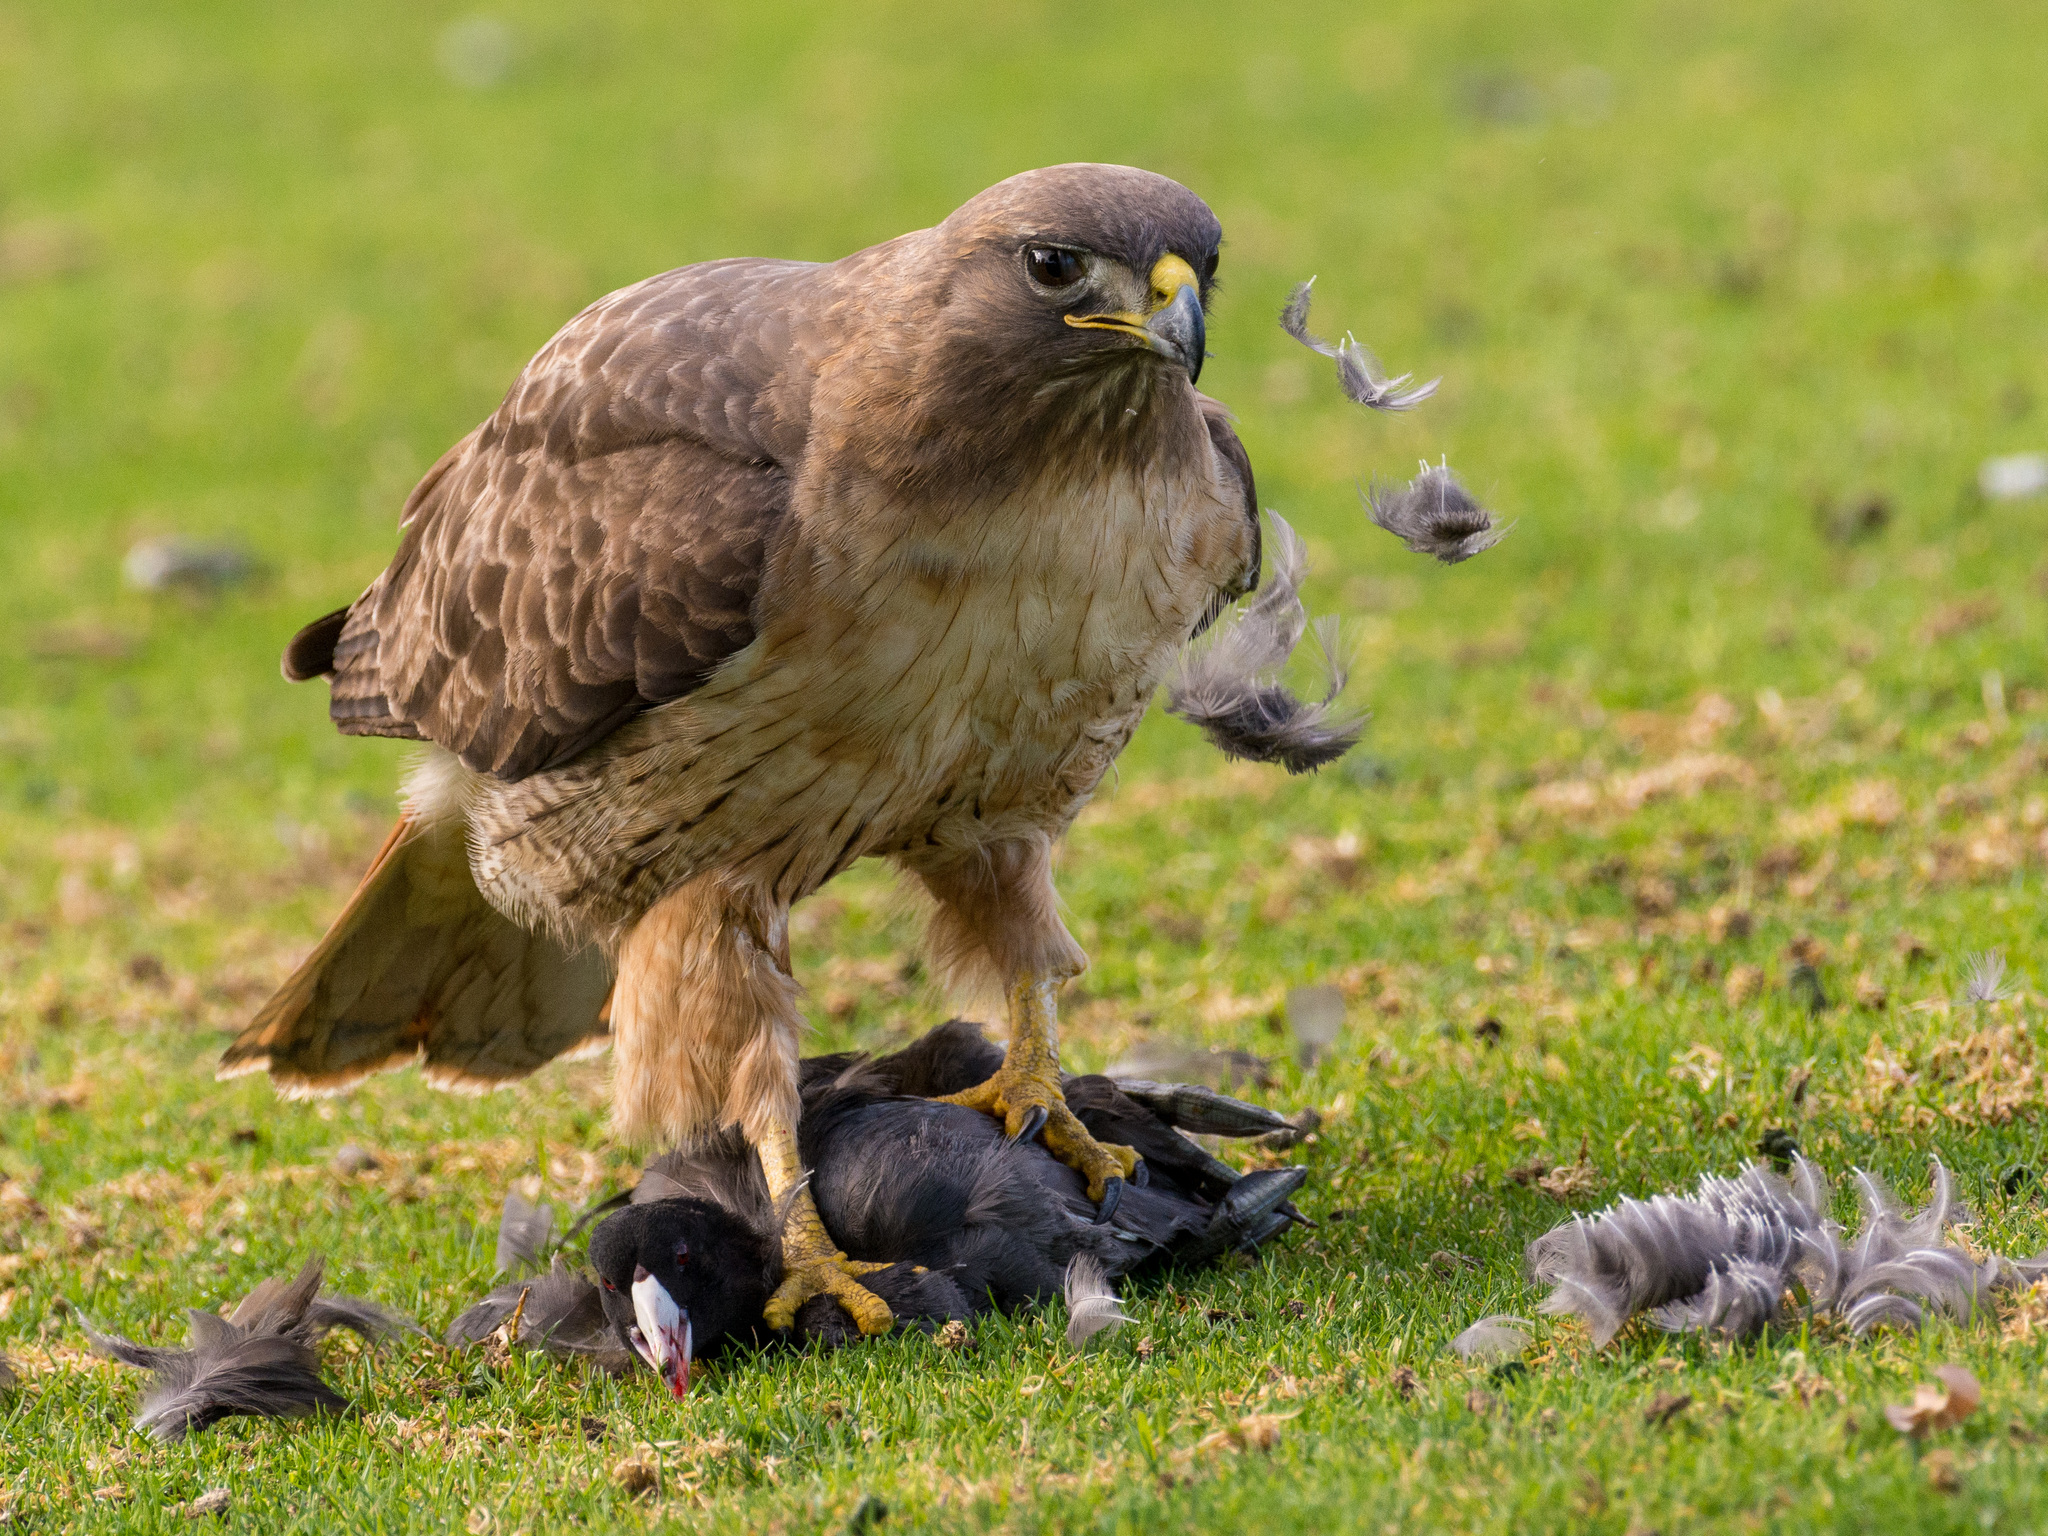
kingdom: Animalia
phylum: Chordata
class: Aves
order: Accipitriformes
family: Accipitridae
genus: Buteo
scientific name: Buteo jamaicensis
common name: Red-tailed hawk
